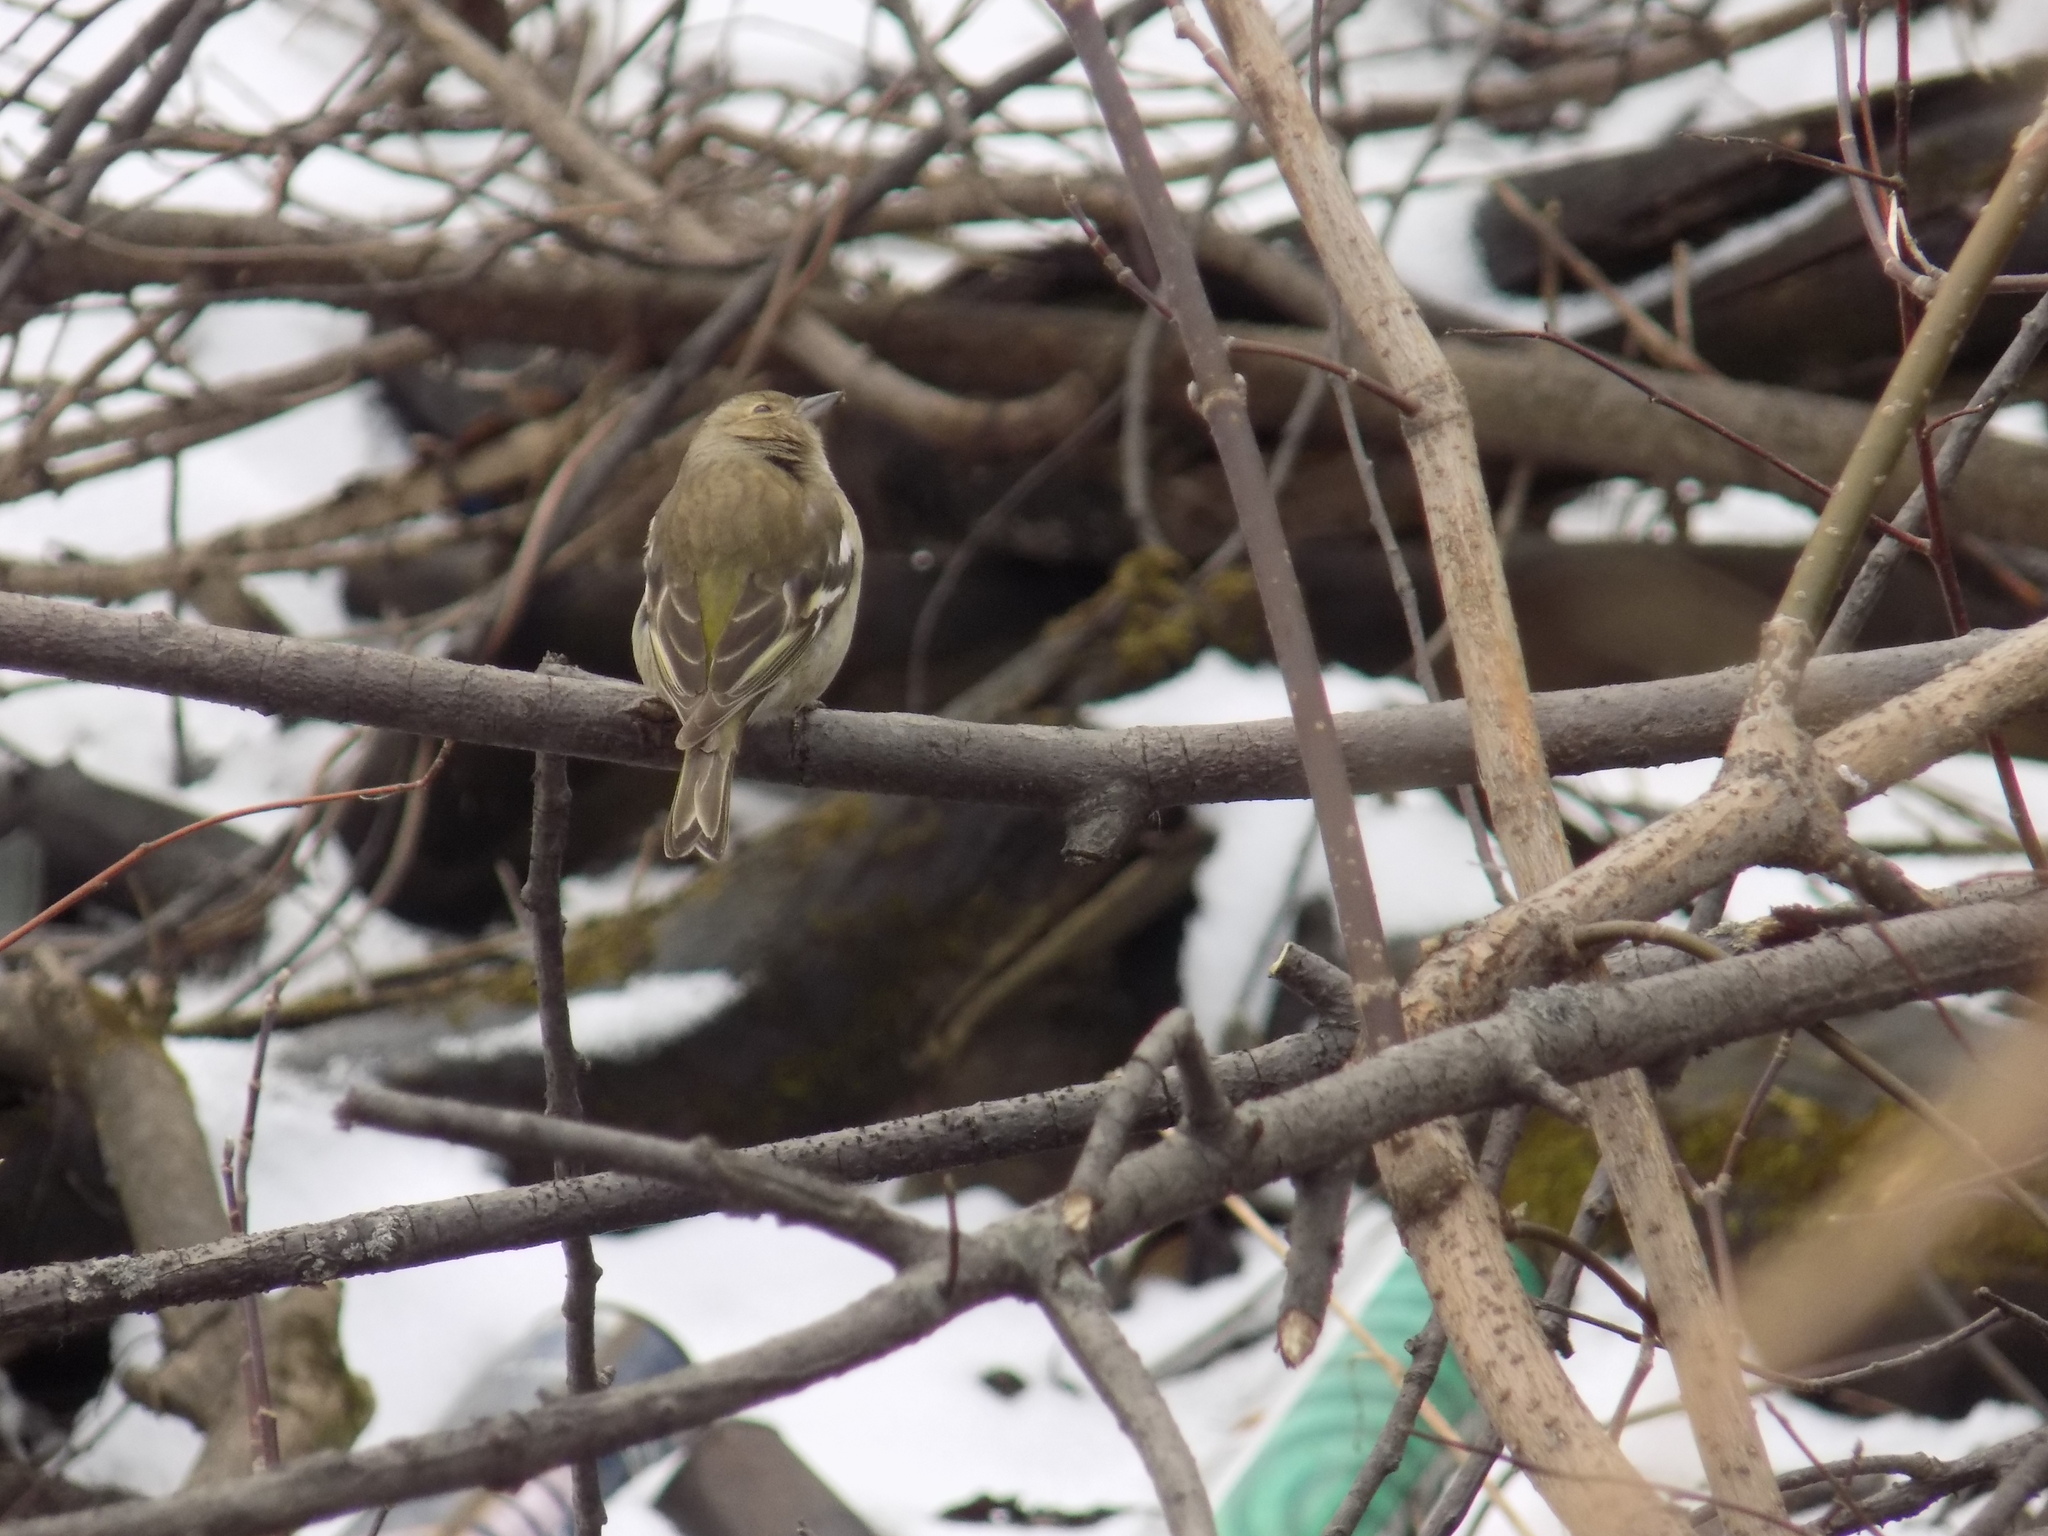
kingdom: Animalia
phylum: Chordata
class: Aves
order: Passeriformes
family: Fringillidae
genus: Fringilla
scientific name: Fringilla coelebs
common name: Common chaffinch
